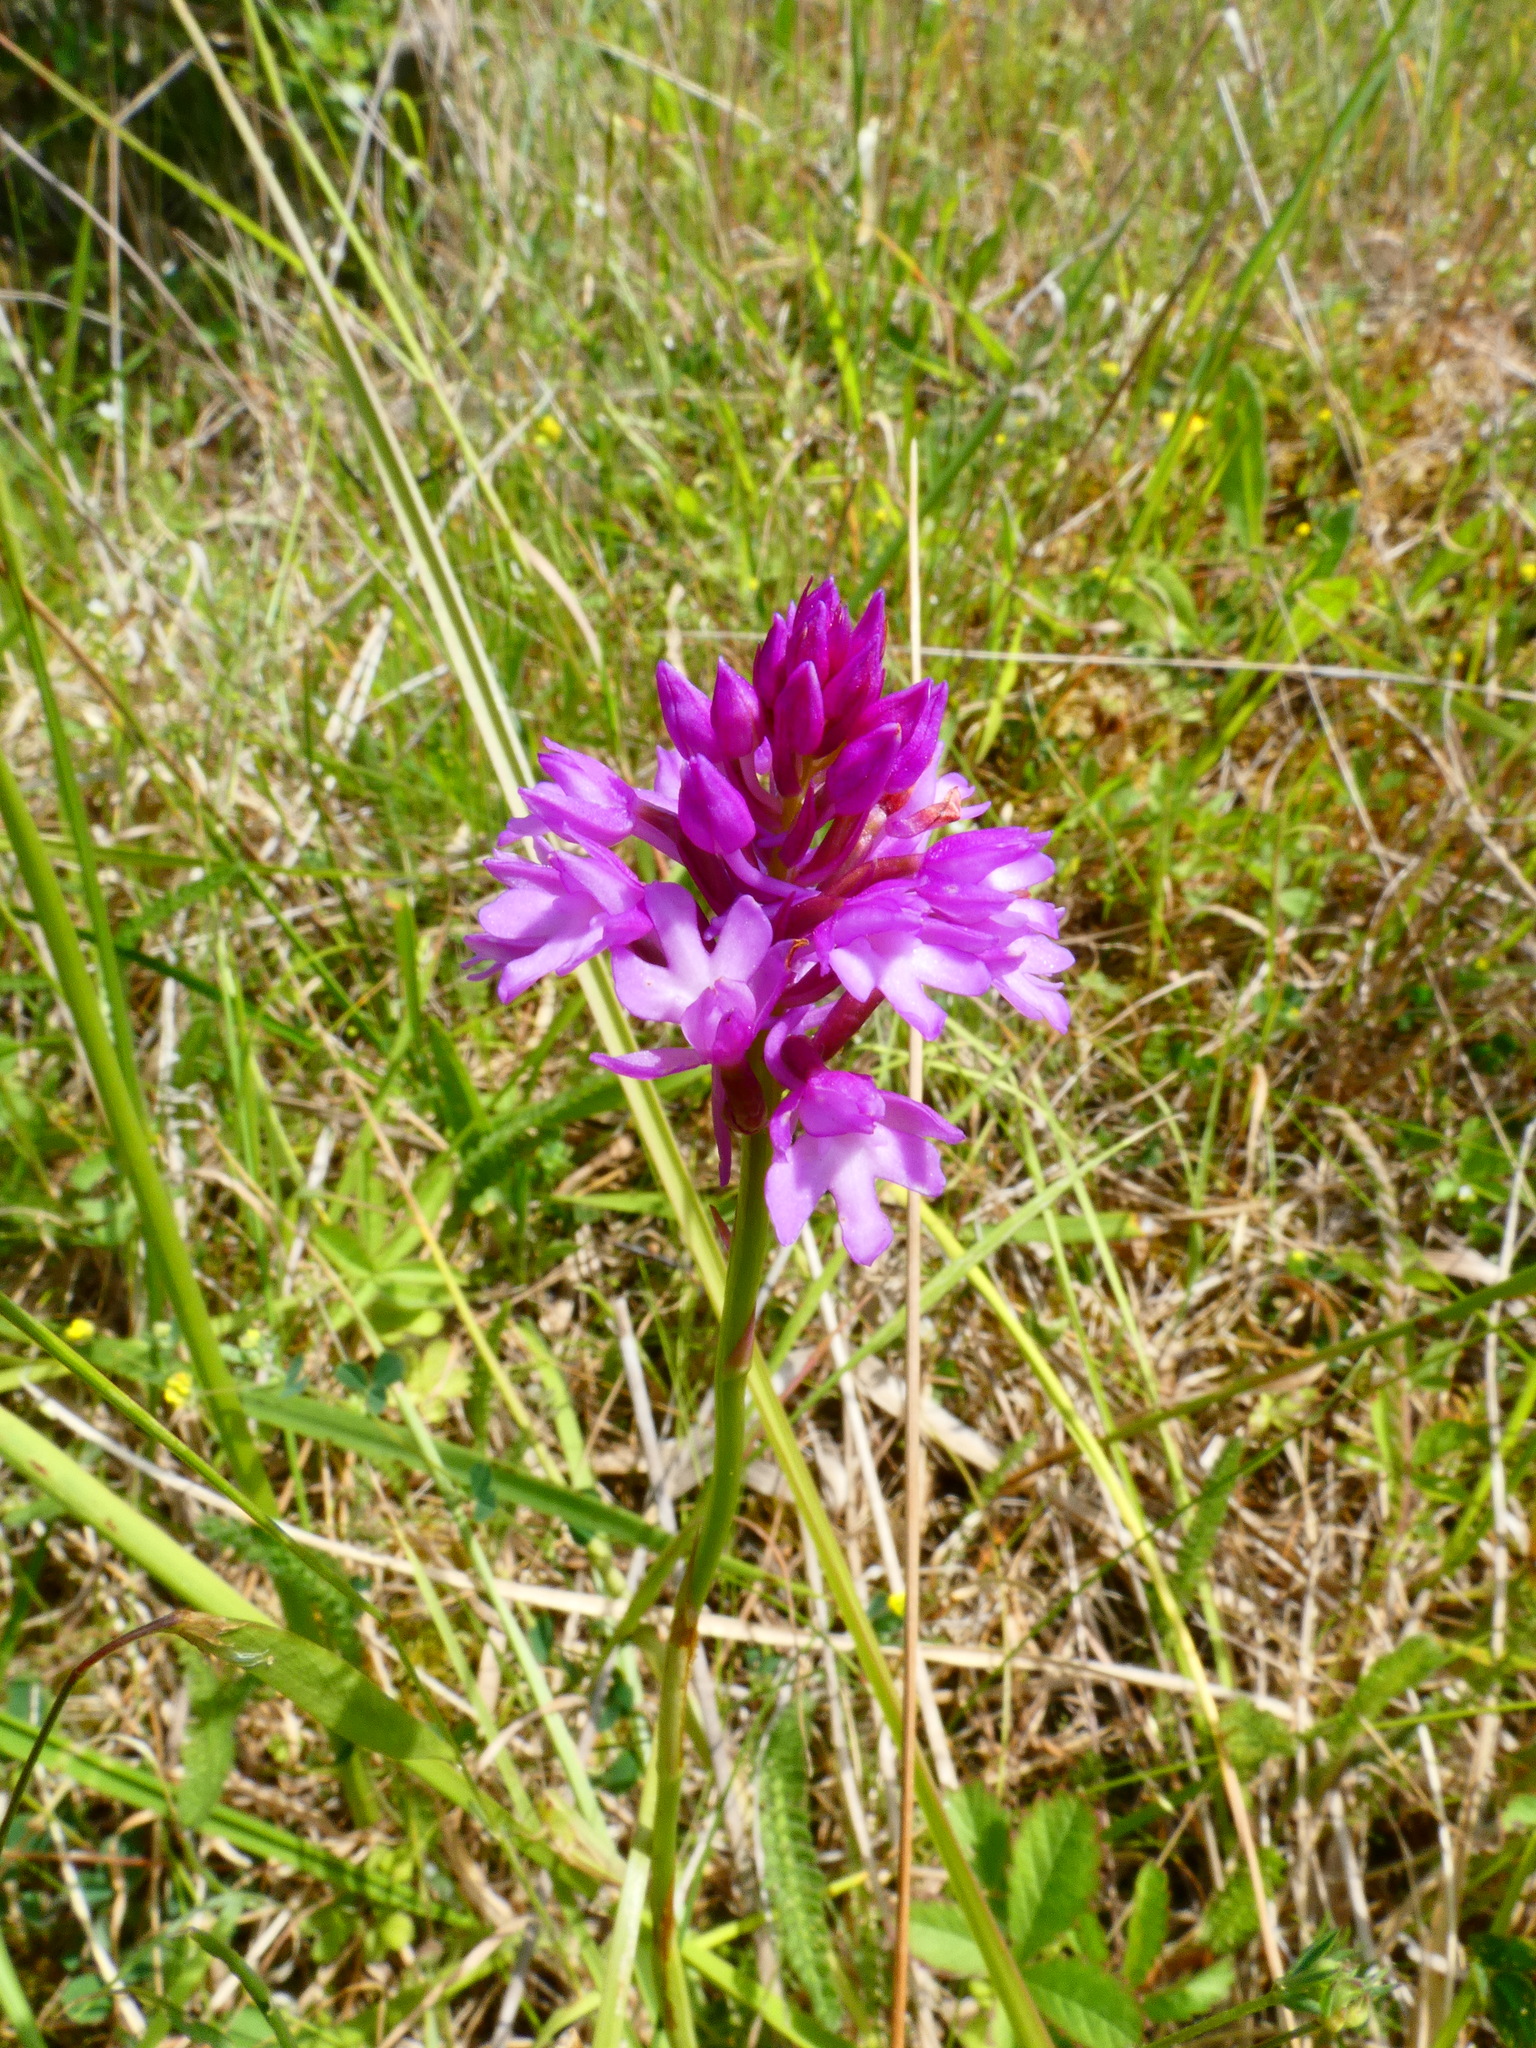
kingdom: Plantae
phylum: Tracheophyta
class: Liliopsida
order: Asparagales
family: Orchidaceae
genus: Anacamptis
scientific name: Anacamptis pyramidalis
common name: Pyramidal orchid
